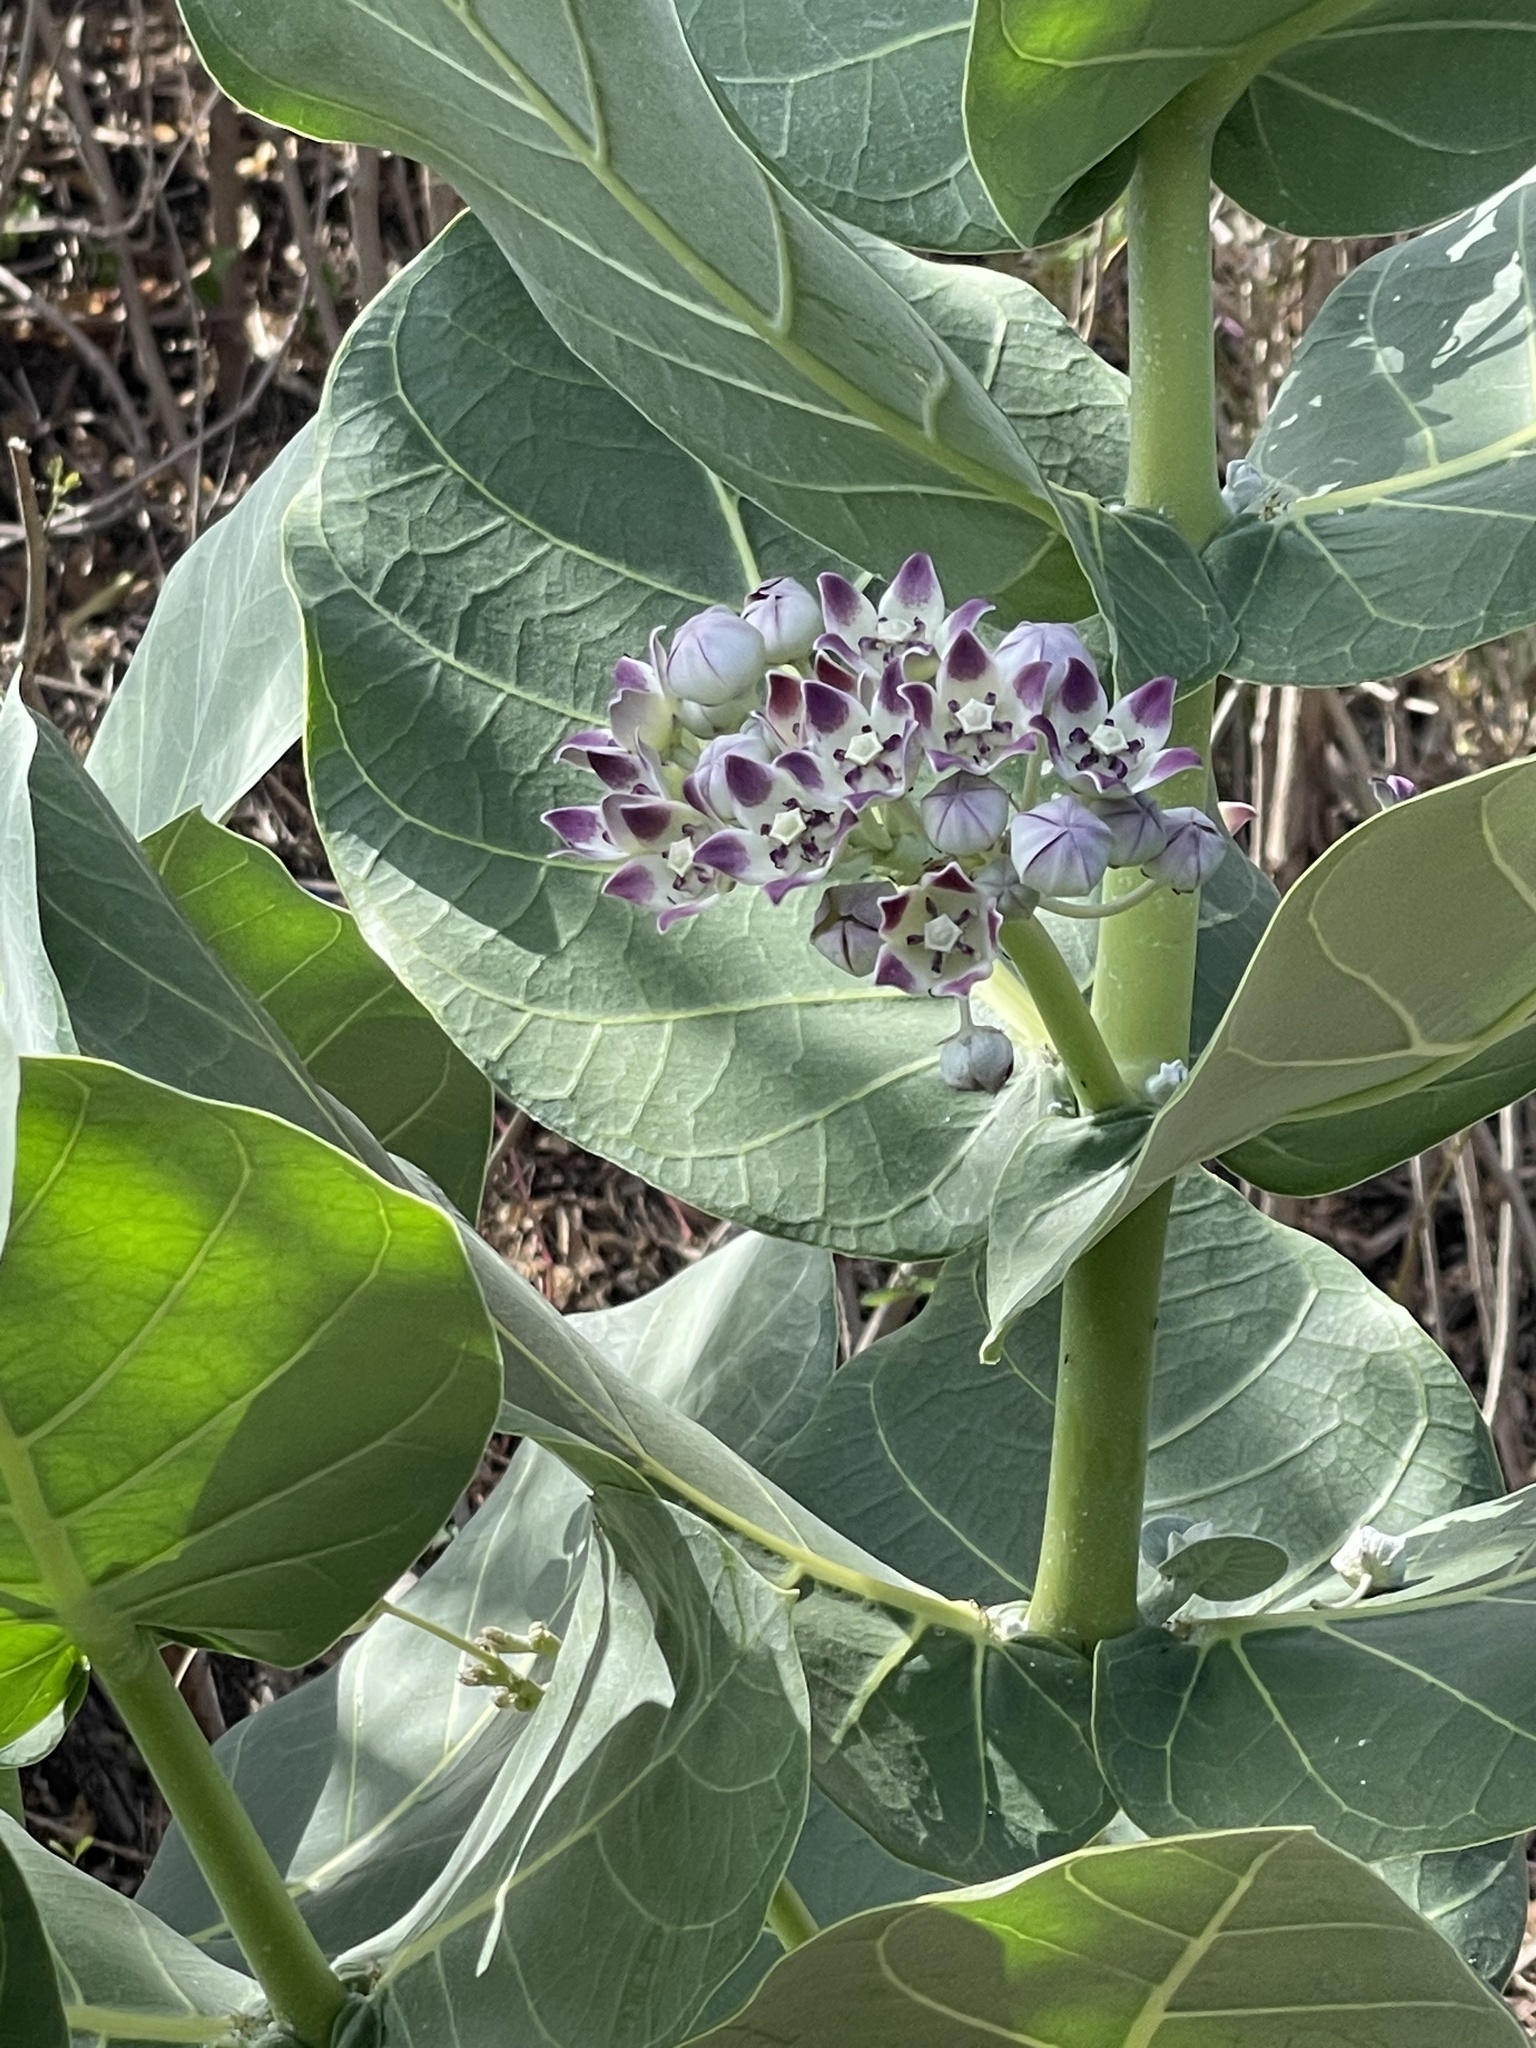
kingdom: Plantae
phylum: Tracheophyta
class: Magnoliopsida
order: Gentianales
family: Apocynaceae
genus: Calotropis
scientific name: Calotropis procera
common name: Roostertree
